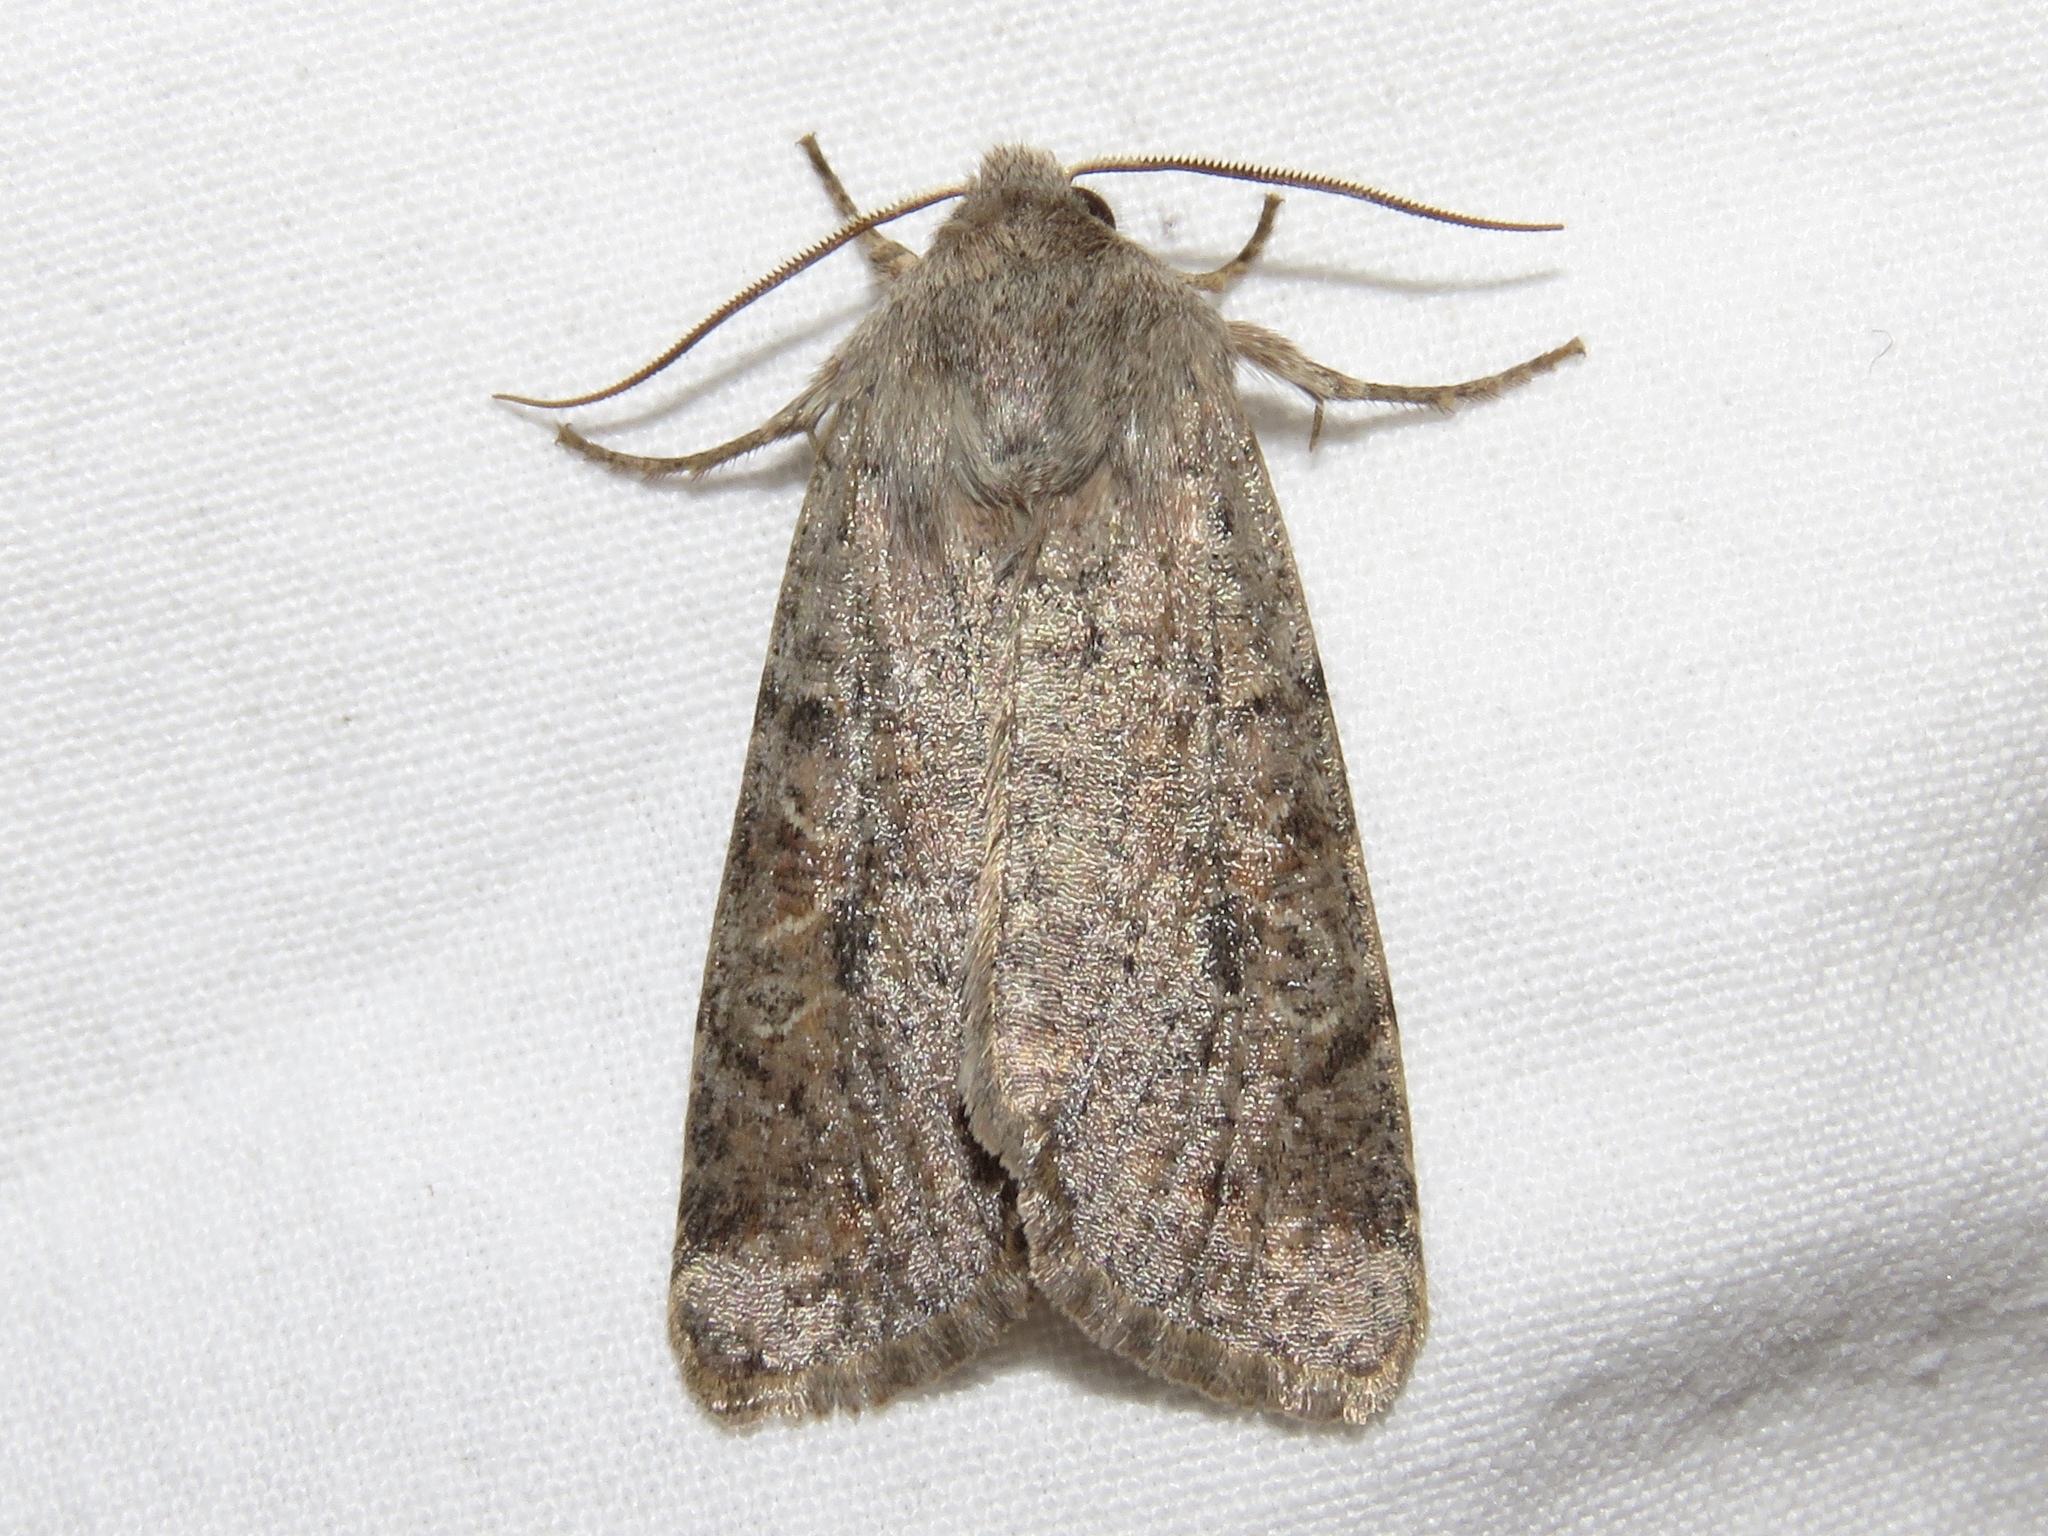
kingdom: Animalia
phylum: Arthropoda
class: Insecta
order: Lepidoptera
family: Noctuidae
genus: Orthosia
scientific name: Orthosia hibisci
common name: Green fruitworm
